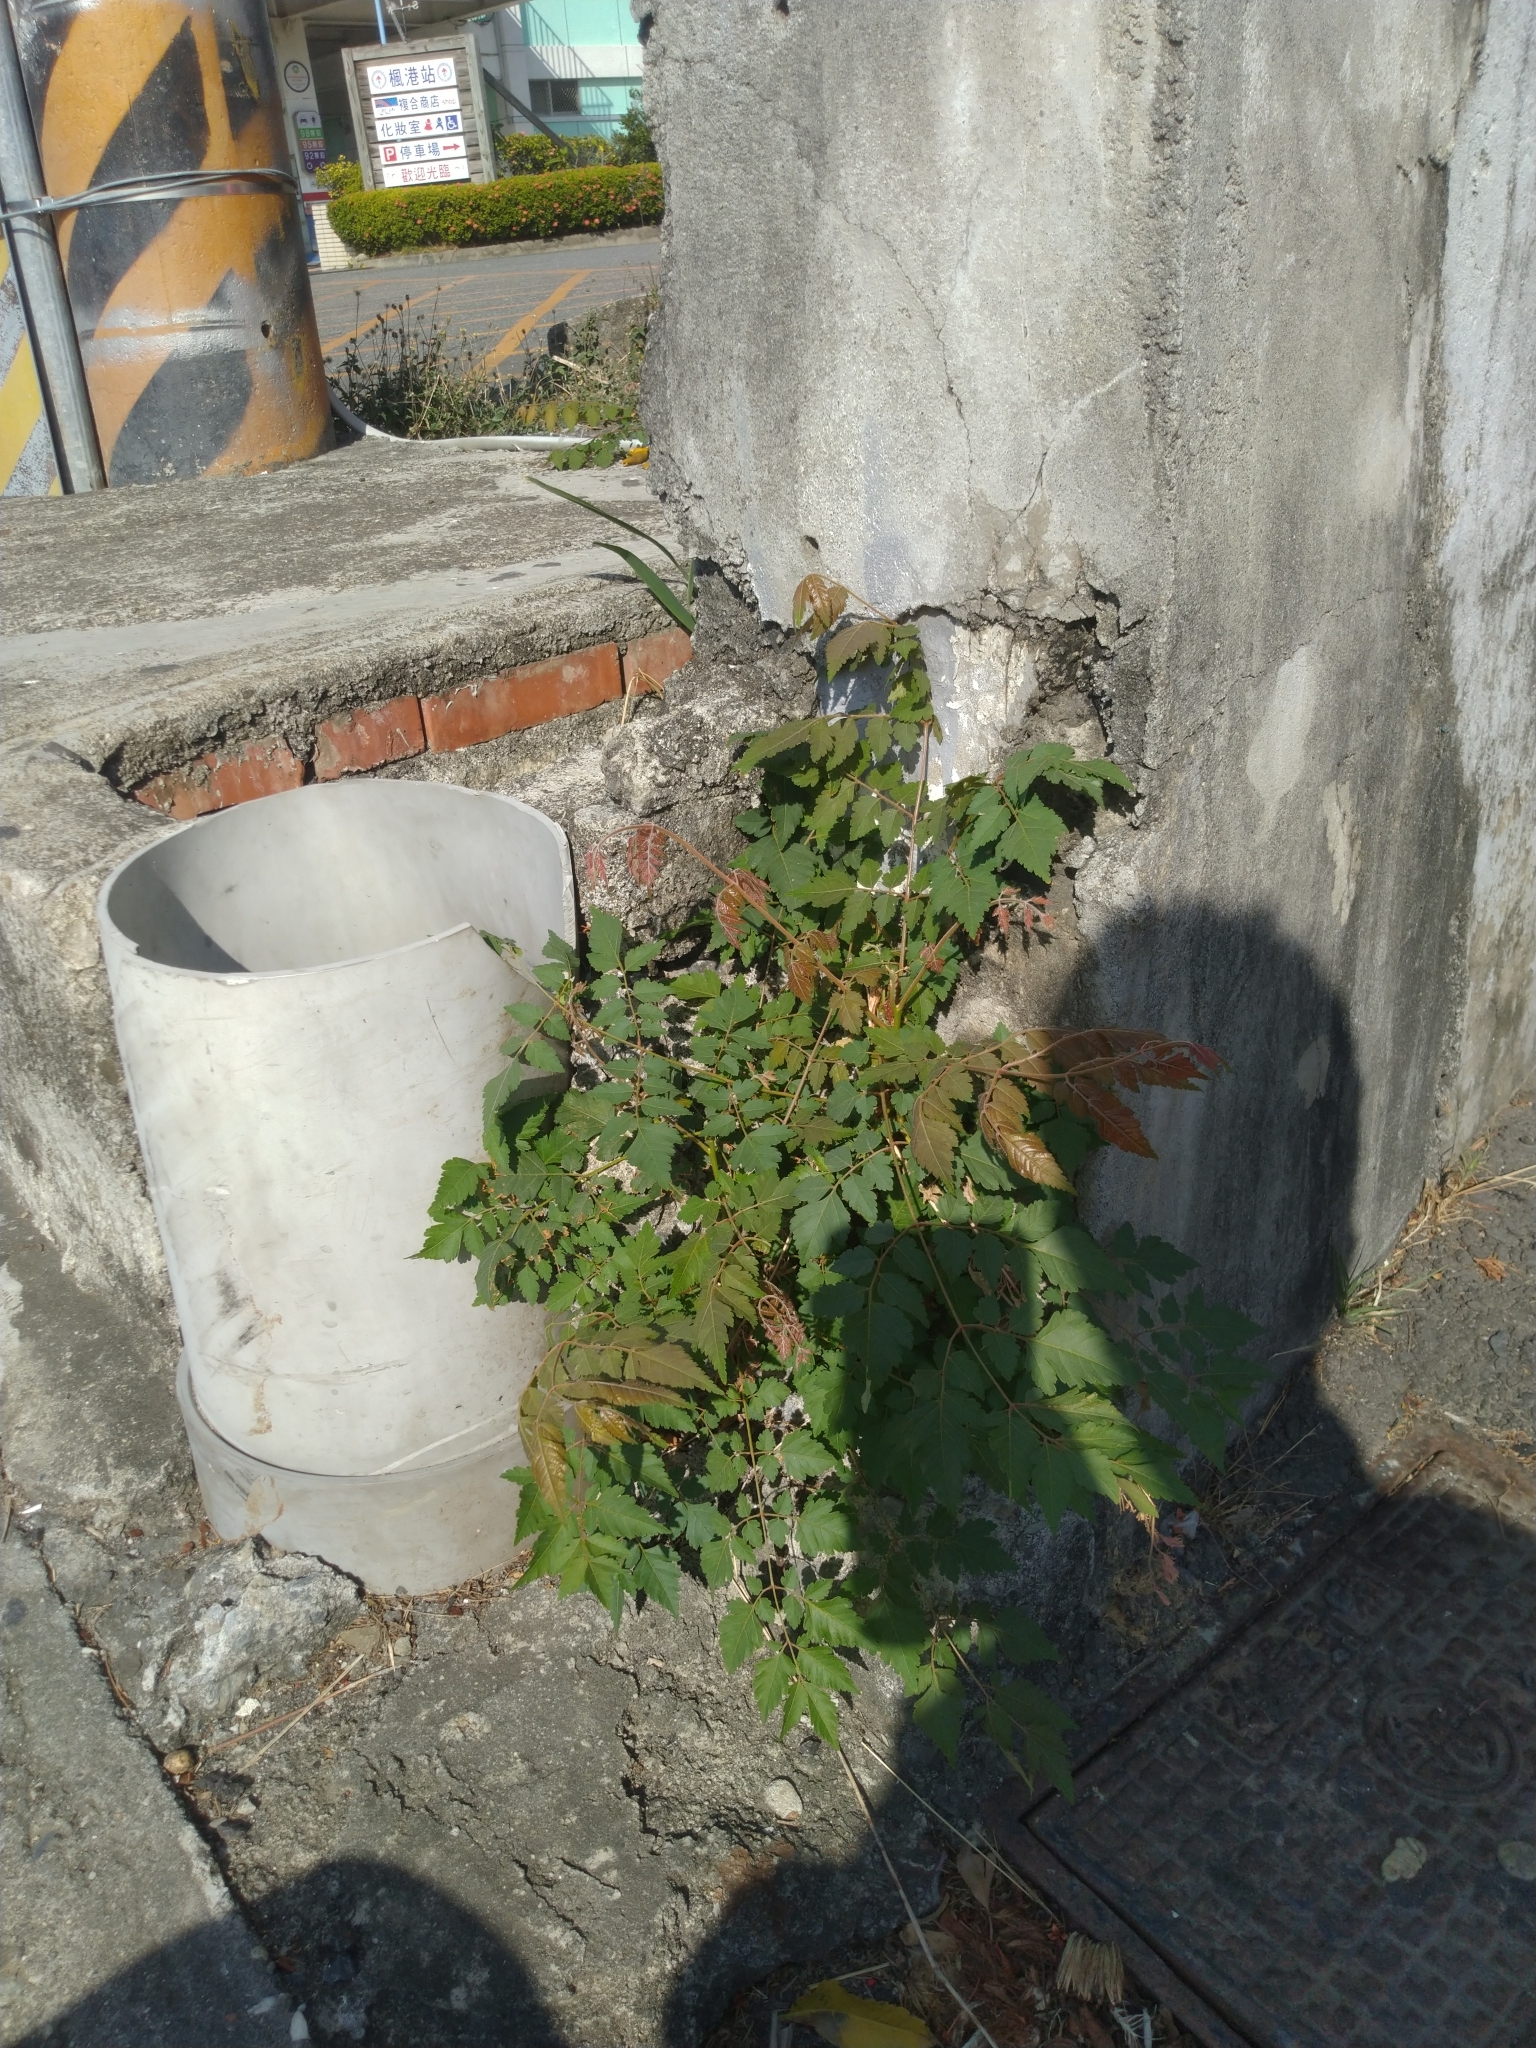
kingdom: Plantae
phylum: Tracheophyta
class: Magnoliopsida
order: Sapindales
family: Sapindaceae
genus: Koelreuteria
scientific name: Koelreuteria elegans
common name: Chinese flame tree
